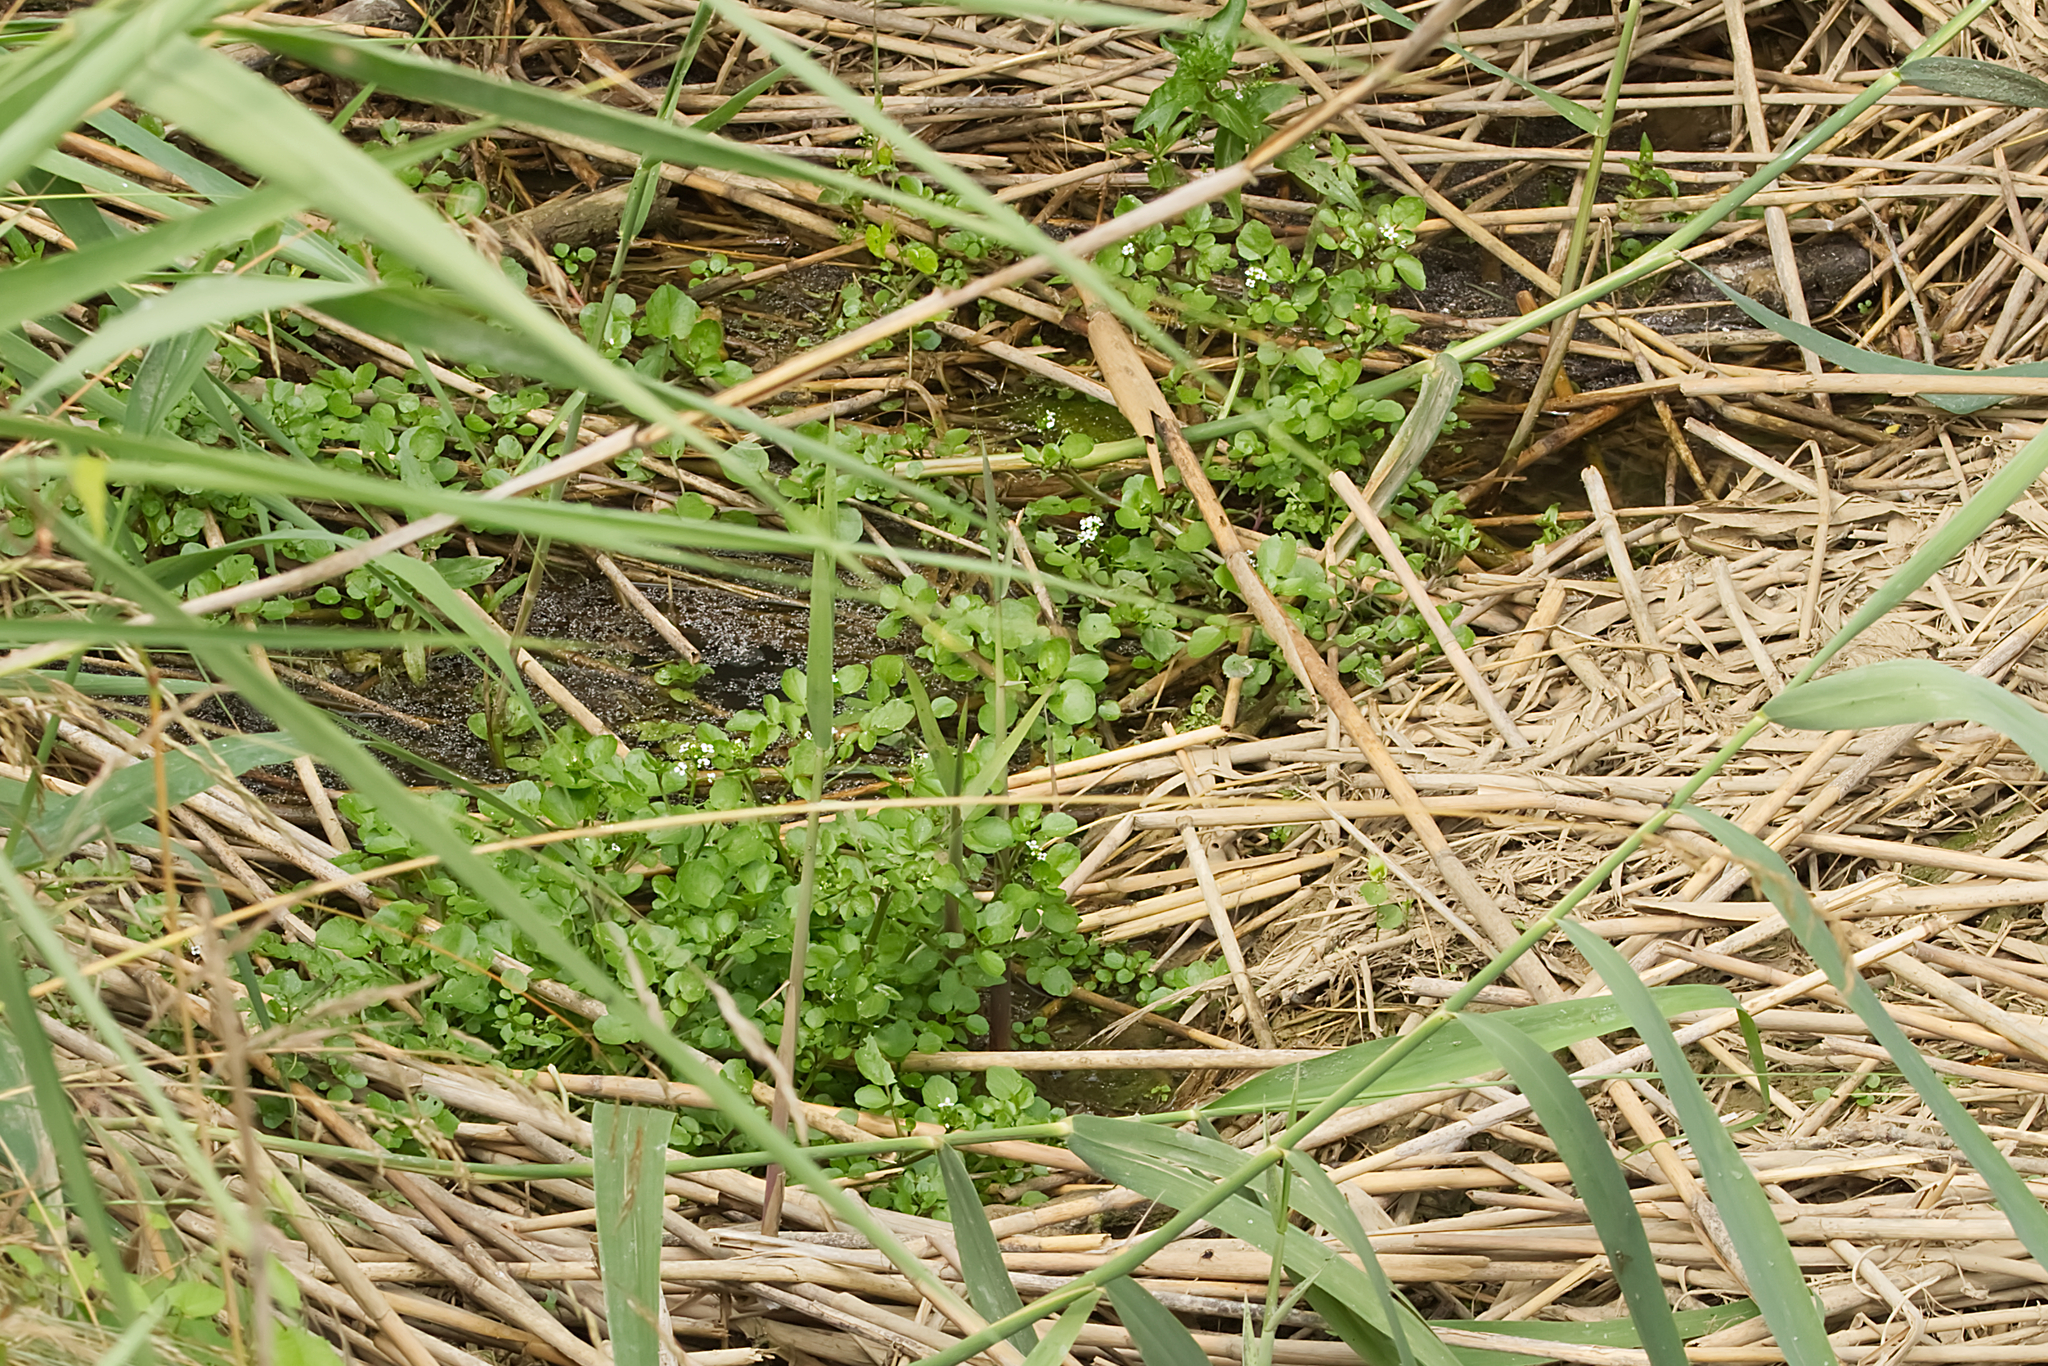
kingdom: Plantae
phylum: Tracheophyta
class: Magnoliopsida
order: Brassicales
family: Brassicaceae
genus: Nasturtium
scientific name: Nasturtium officinale
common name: Watercress
